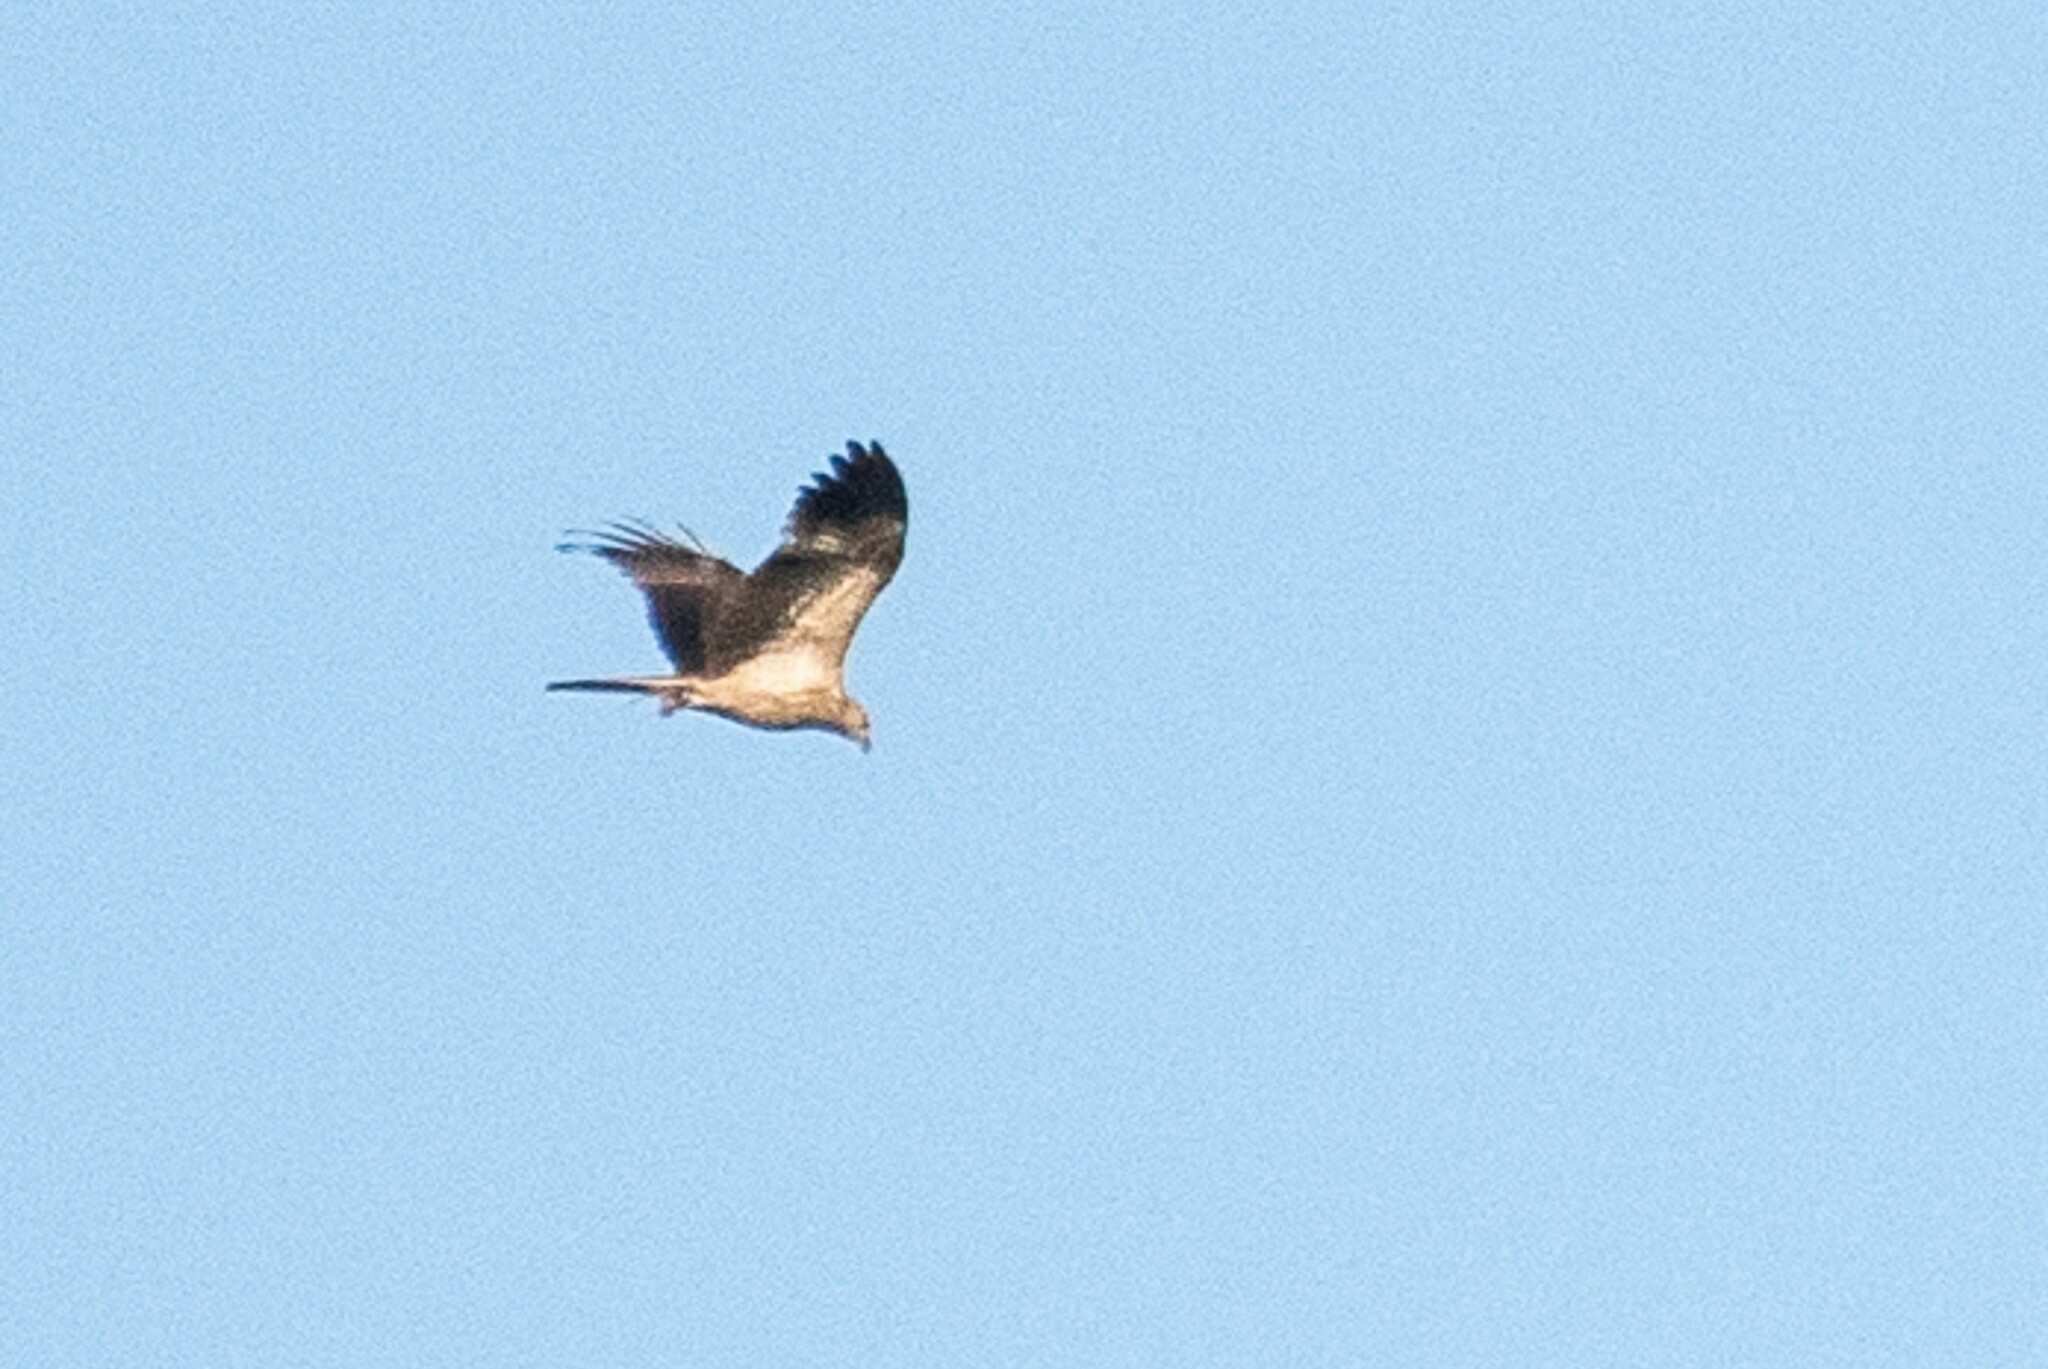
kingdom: Animalia
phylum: Chordata
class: Aves
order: Accipitriformes
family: Accipitridae
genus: Haliastur
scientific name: Haliastur sphenurus
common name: Whistling kite
